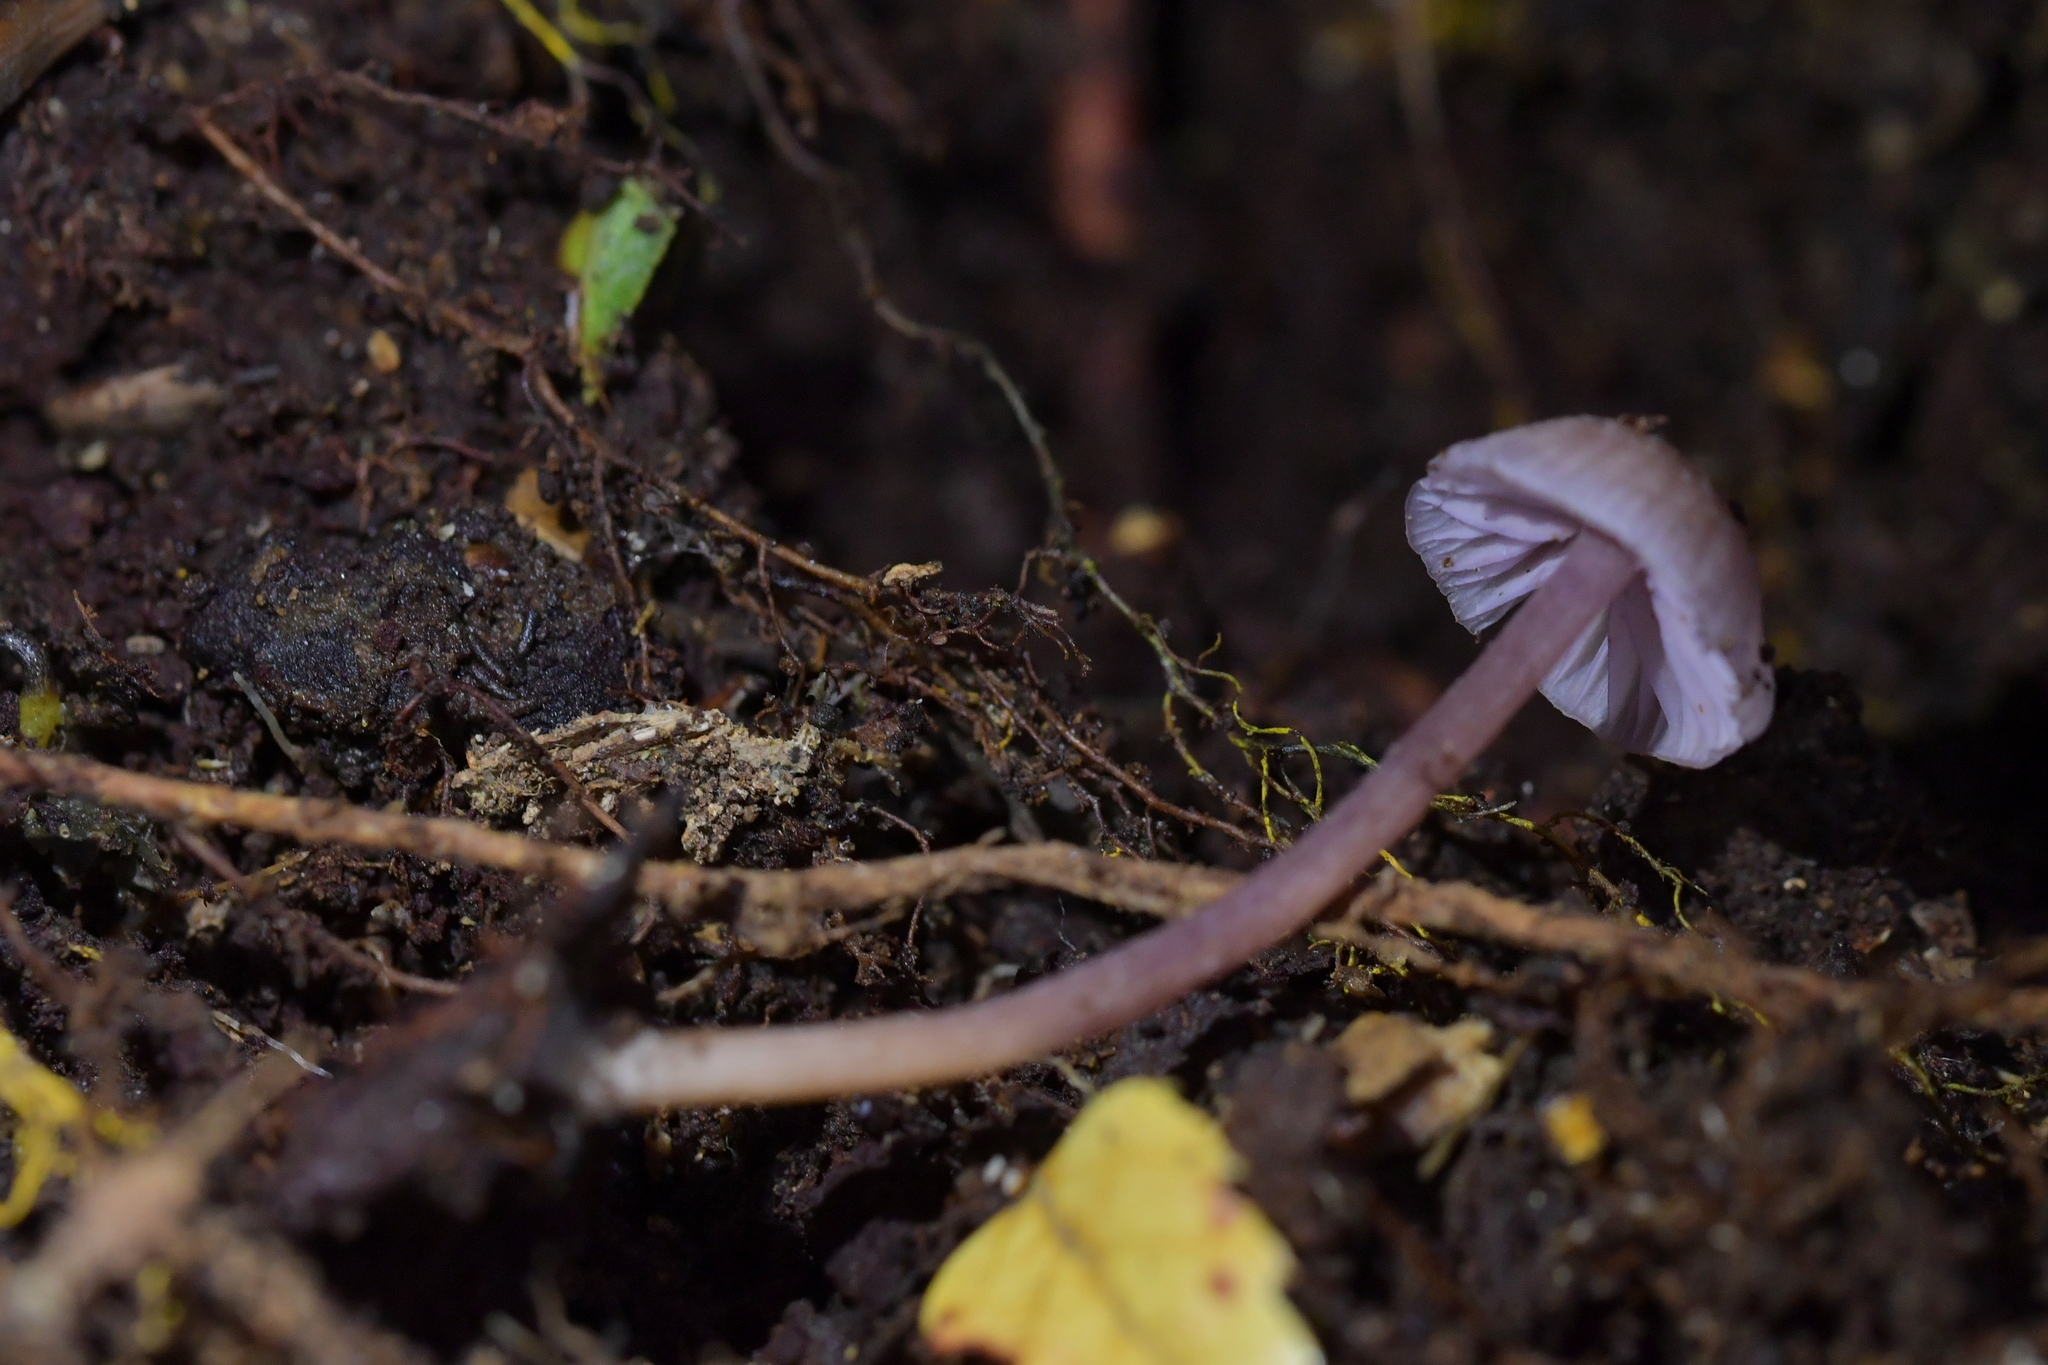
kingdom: Fungi
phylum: Basidiomycota
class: Agaricomycetes
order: Agaricales
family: Hydnangiaceae
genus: Laccaria
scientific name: Laccaria masoniae
